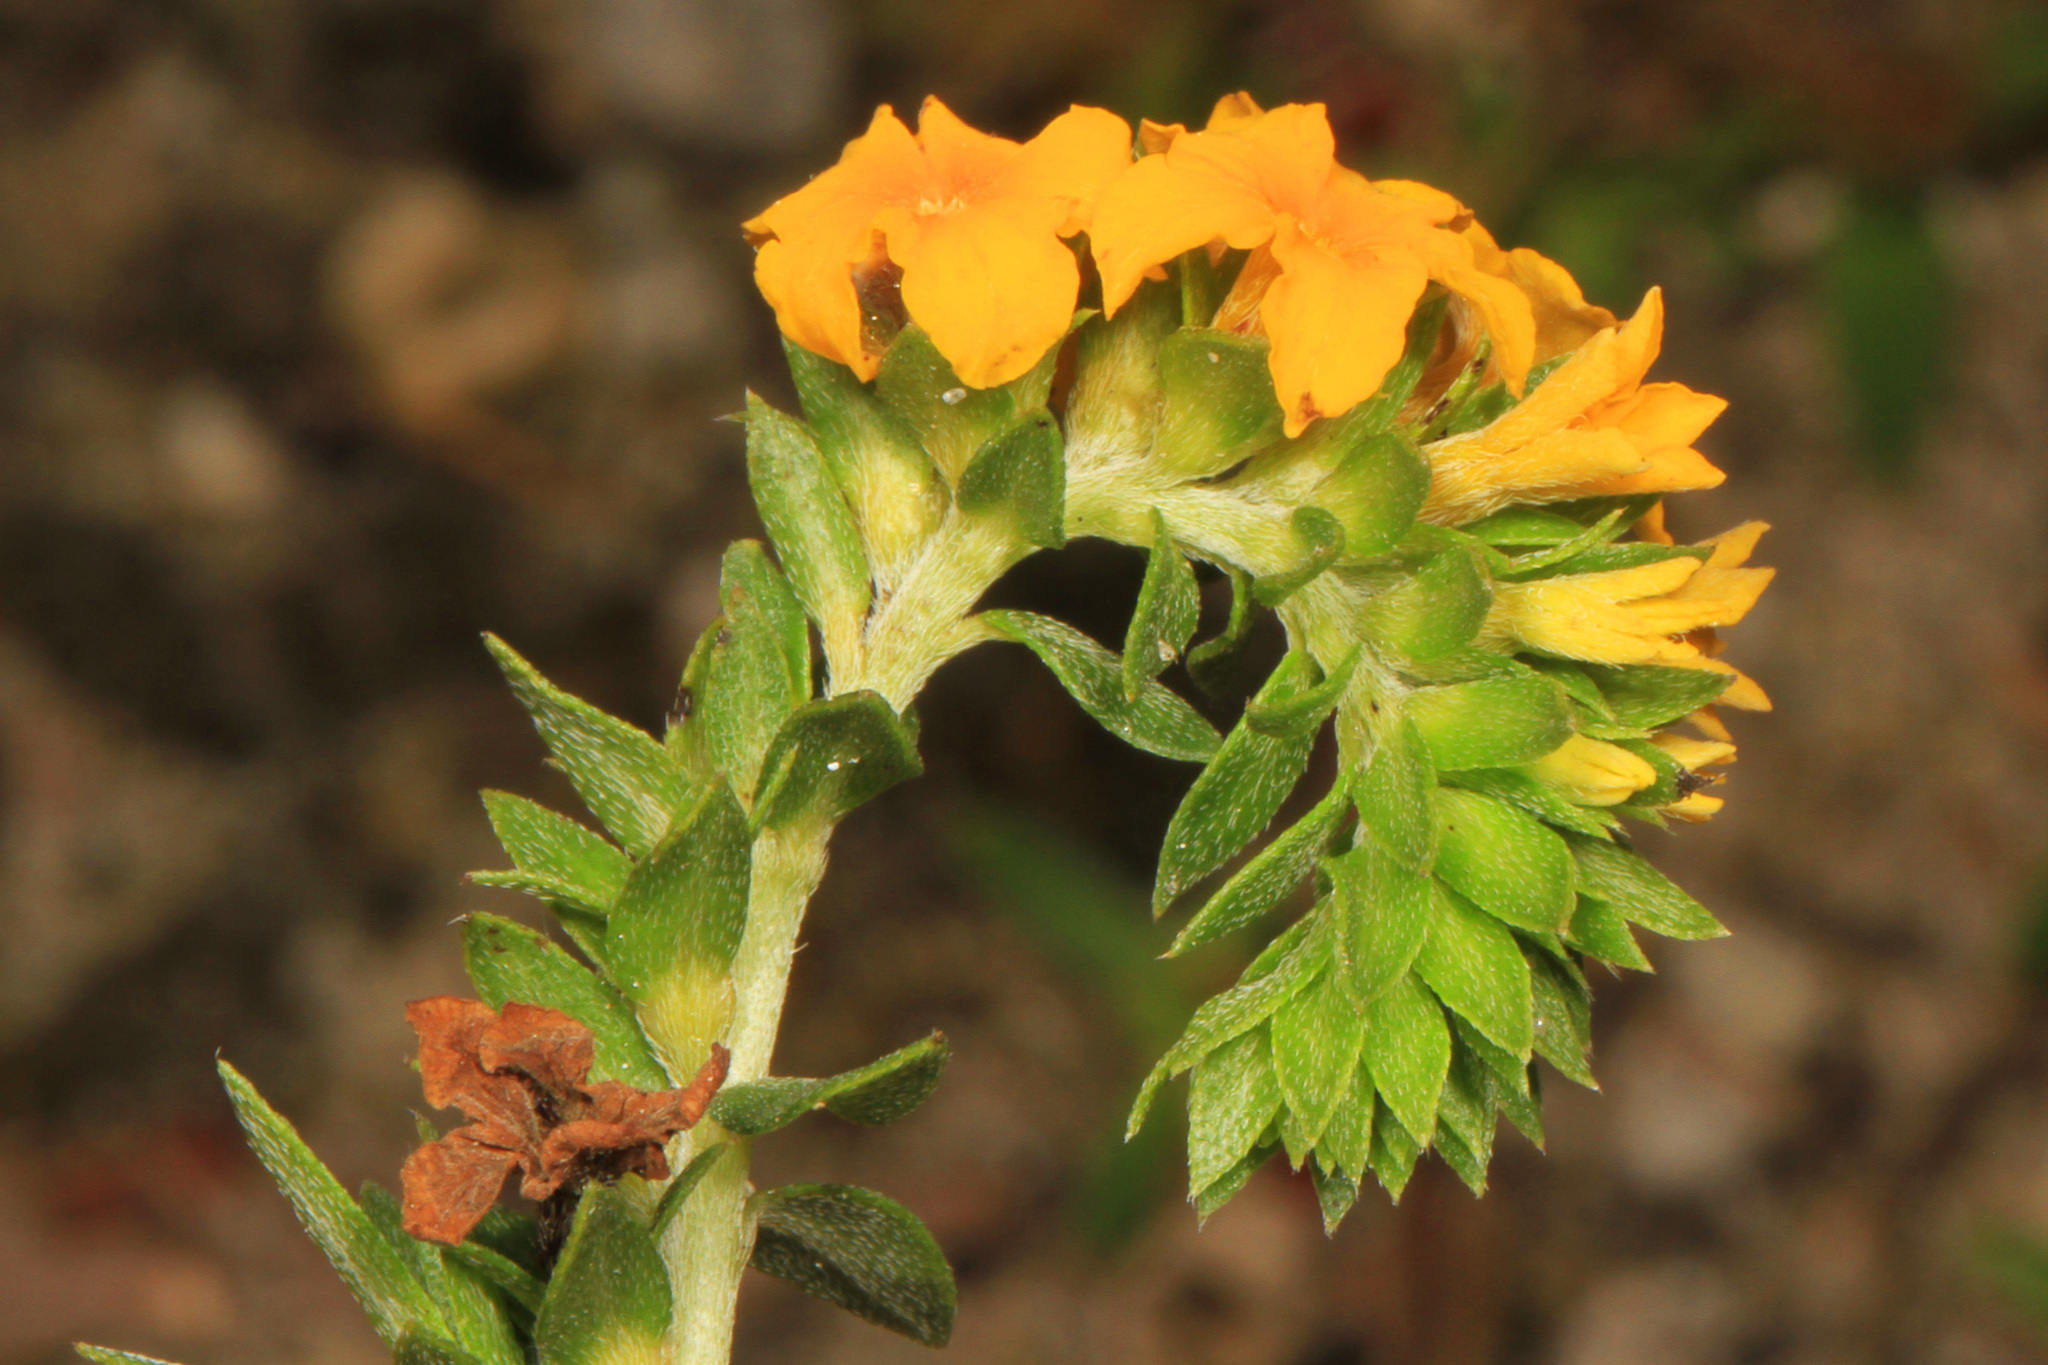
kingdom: Plantae
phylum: Tracheophyta
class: Magnoliopsida
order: Boraginales
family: Heliotropiaceae
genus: Euploca
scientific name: Euploca polyphylla
